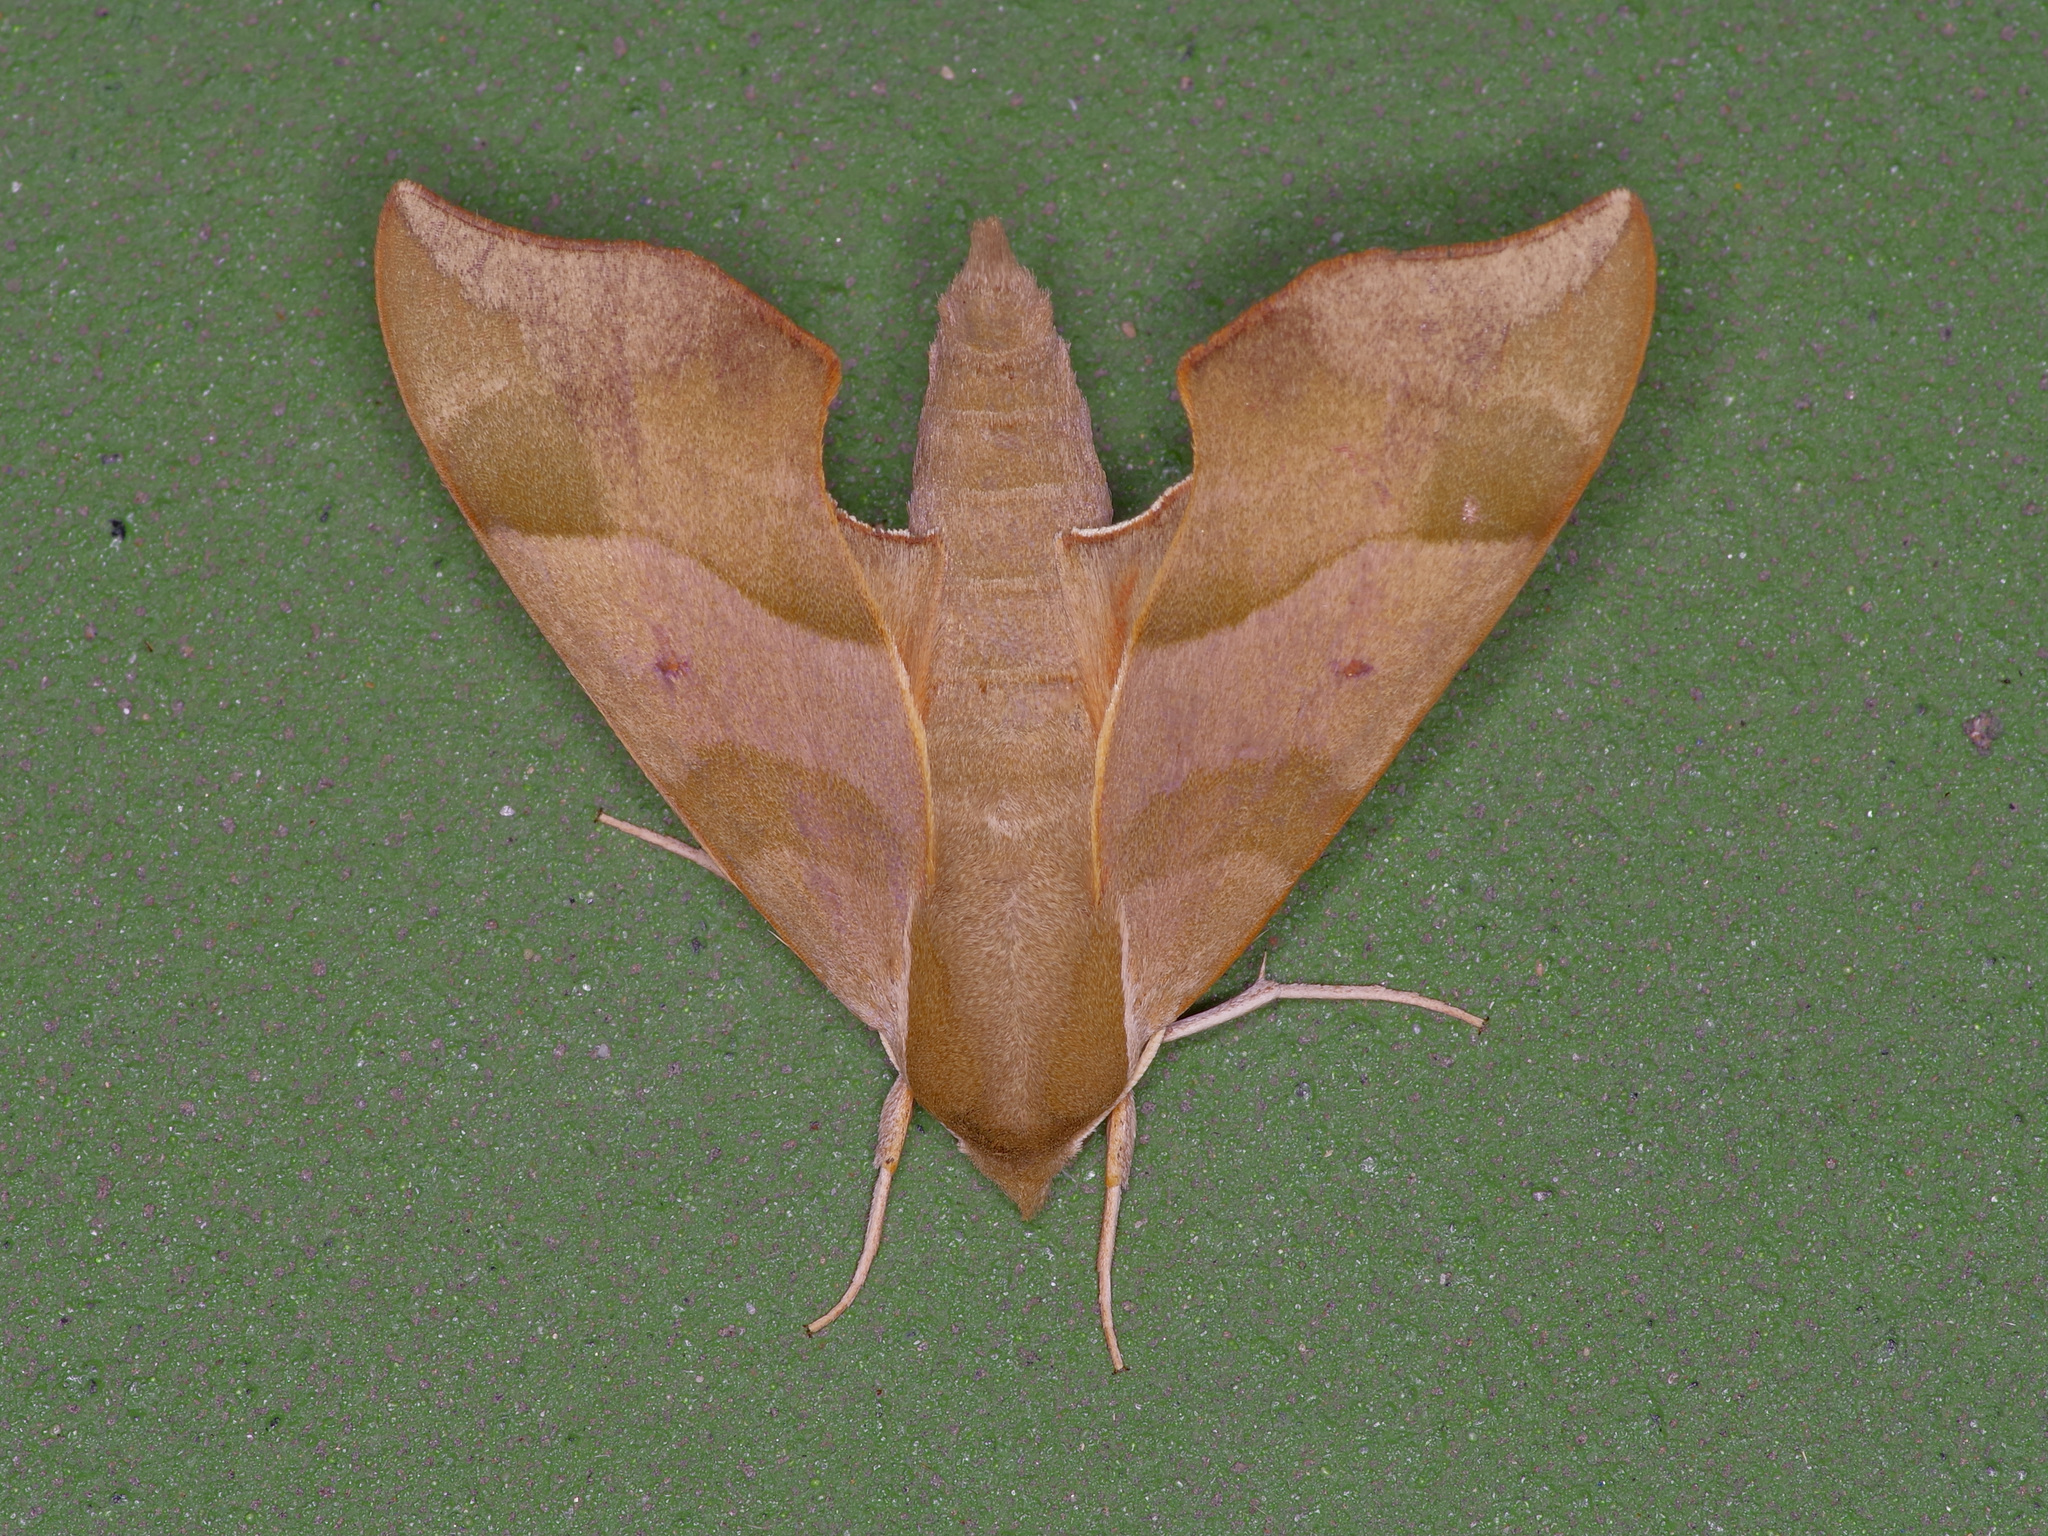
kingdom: Animalia
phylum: Arthropoda
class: Insecta
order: Lepidoptera
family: Sphingidae
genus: Darapsa
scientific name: Darapsa myron
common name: Hog sphinx
